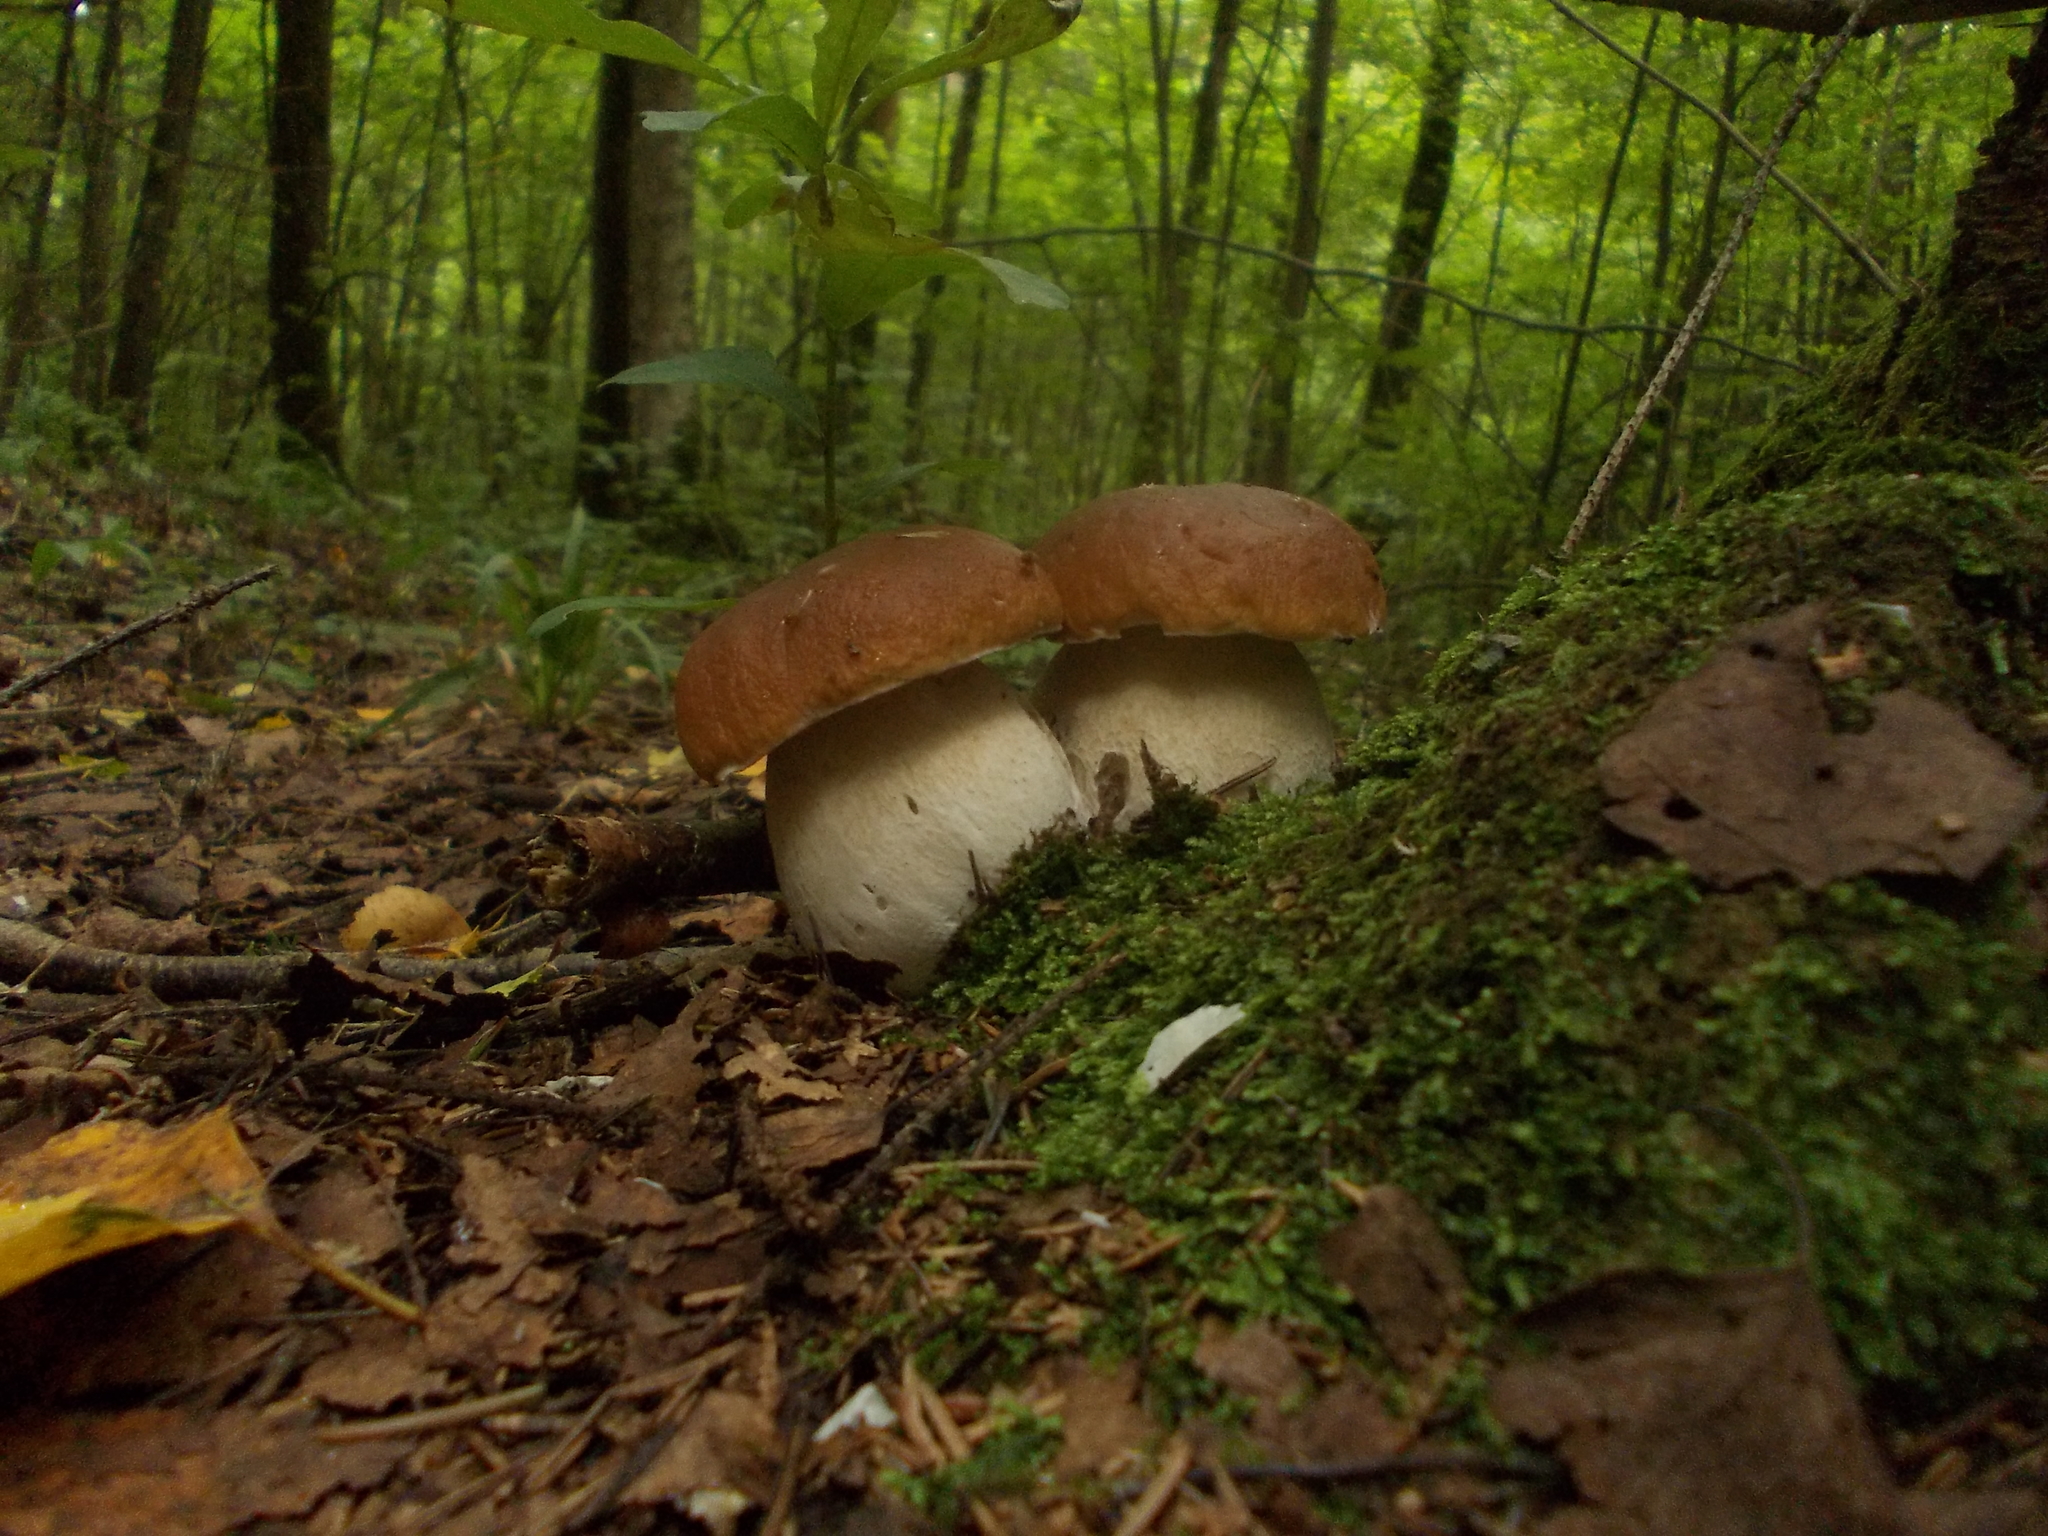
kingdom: Fungi
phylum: Basidiomycota
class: Agaricomycetes
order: Boletales
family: Boletaceae
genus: Boletus
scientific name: Boletus edulis
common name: Cep
